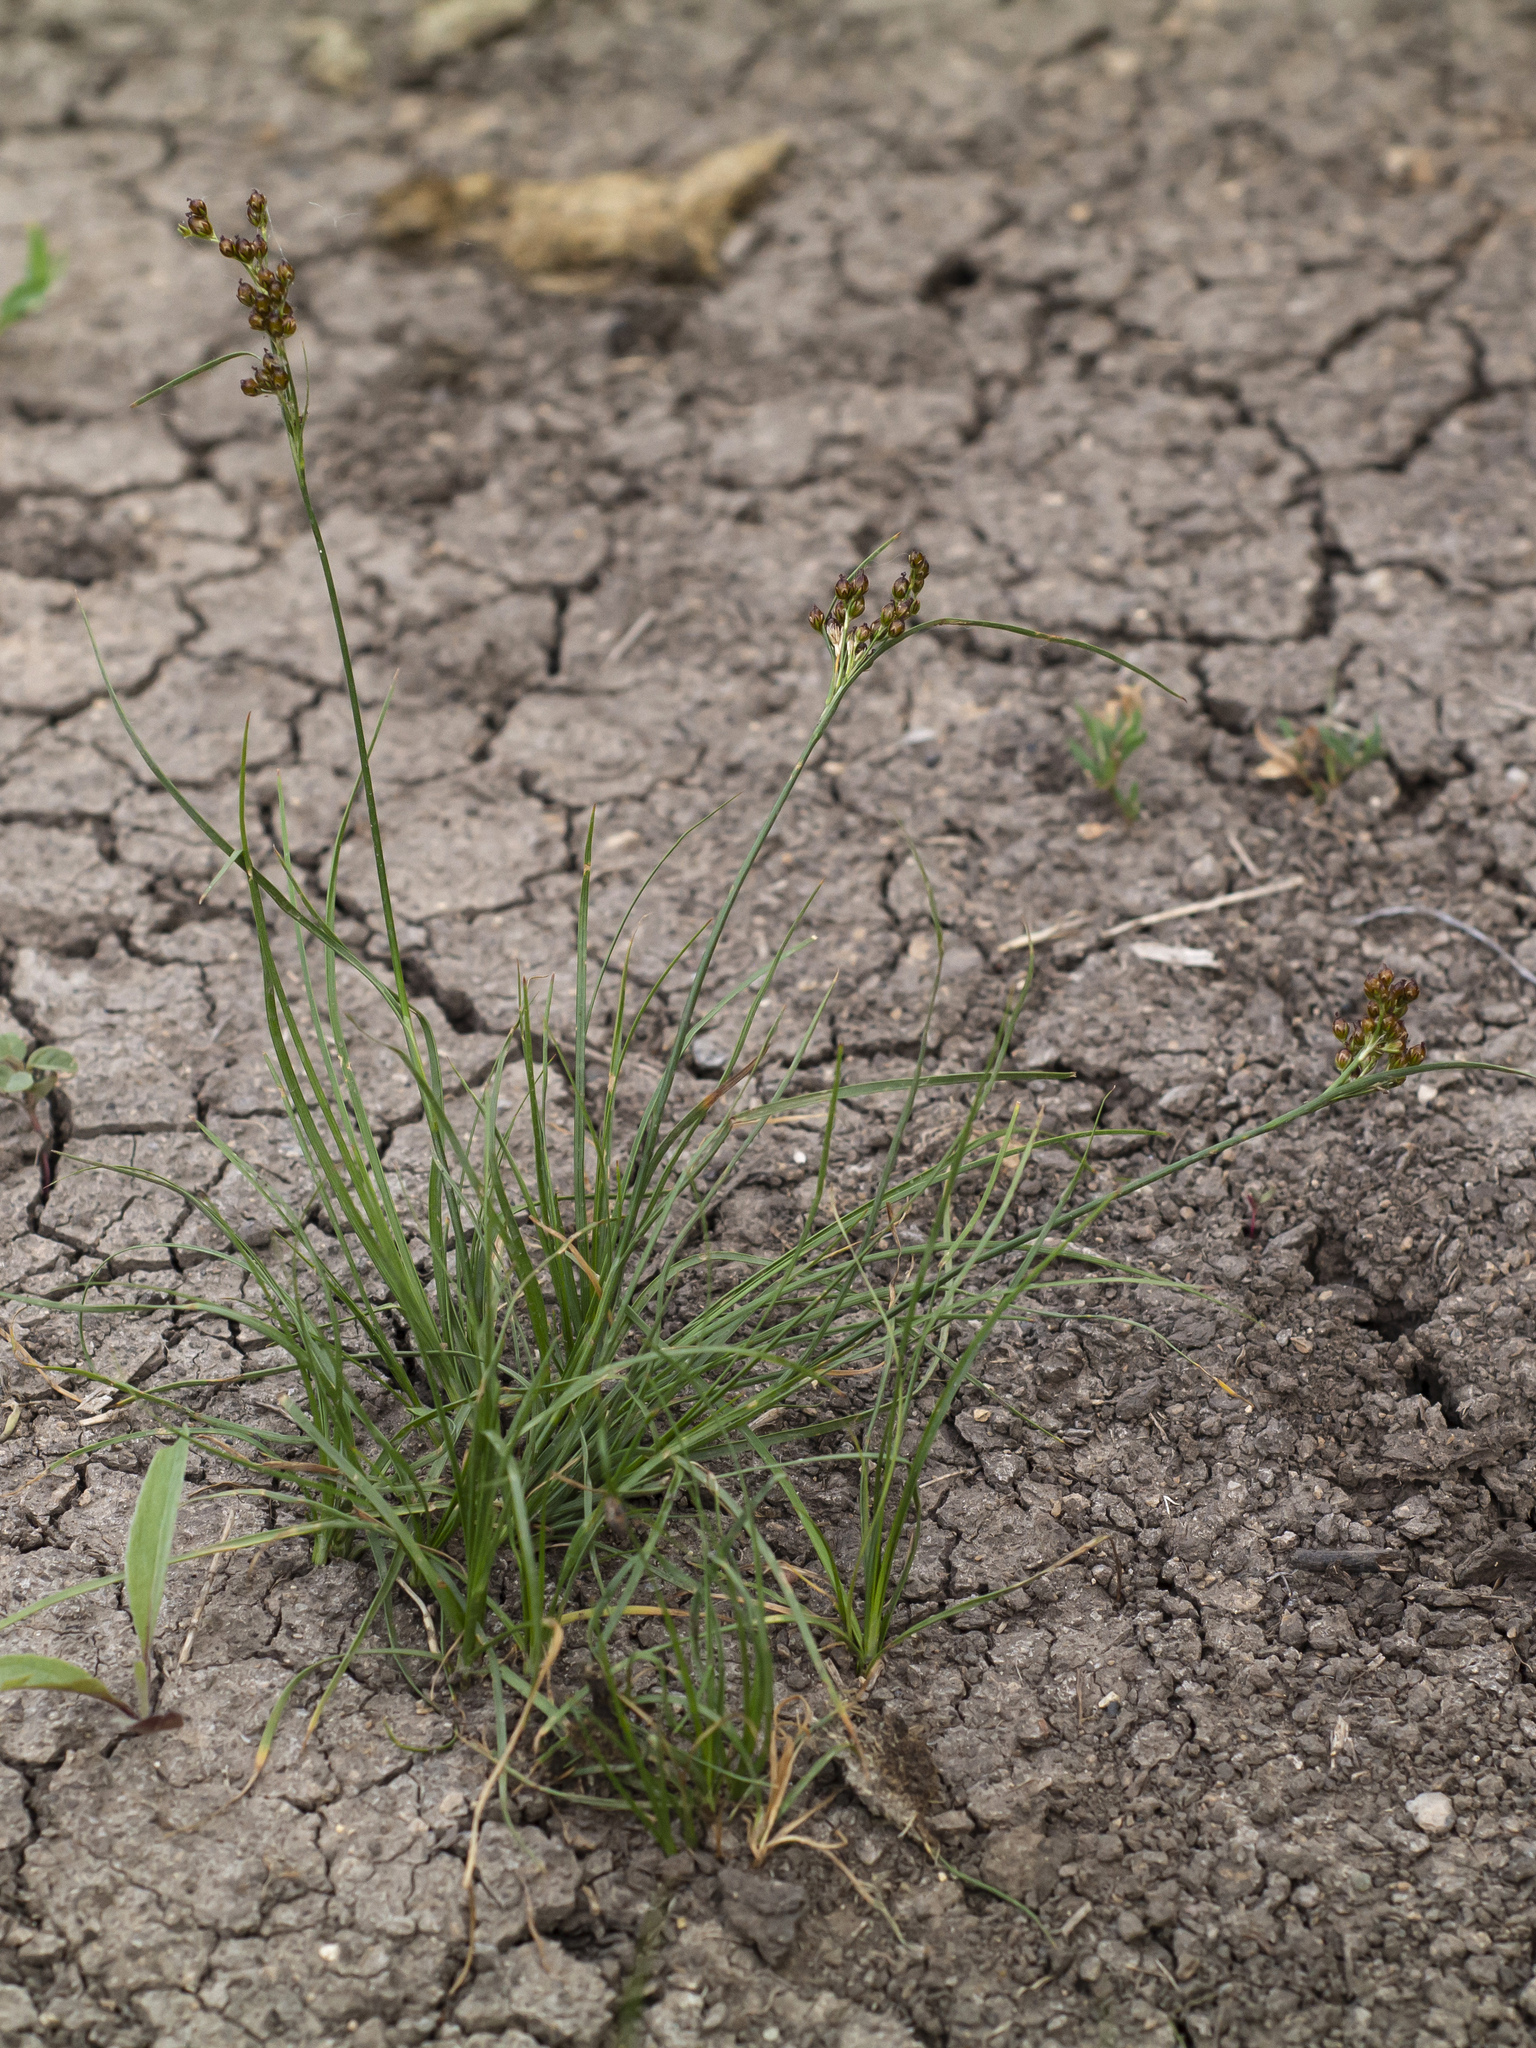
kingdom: Plantae
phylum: Tracheophyta
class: Liliopsida
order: Poales
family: Juncaceae
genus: Juncus
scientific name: Juncus compressus
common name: Round-fruited rush
